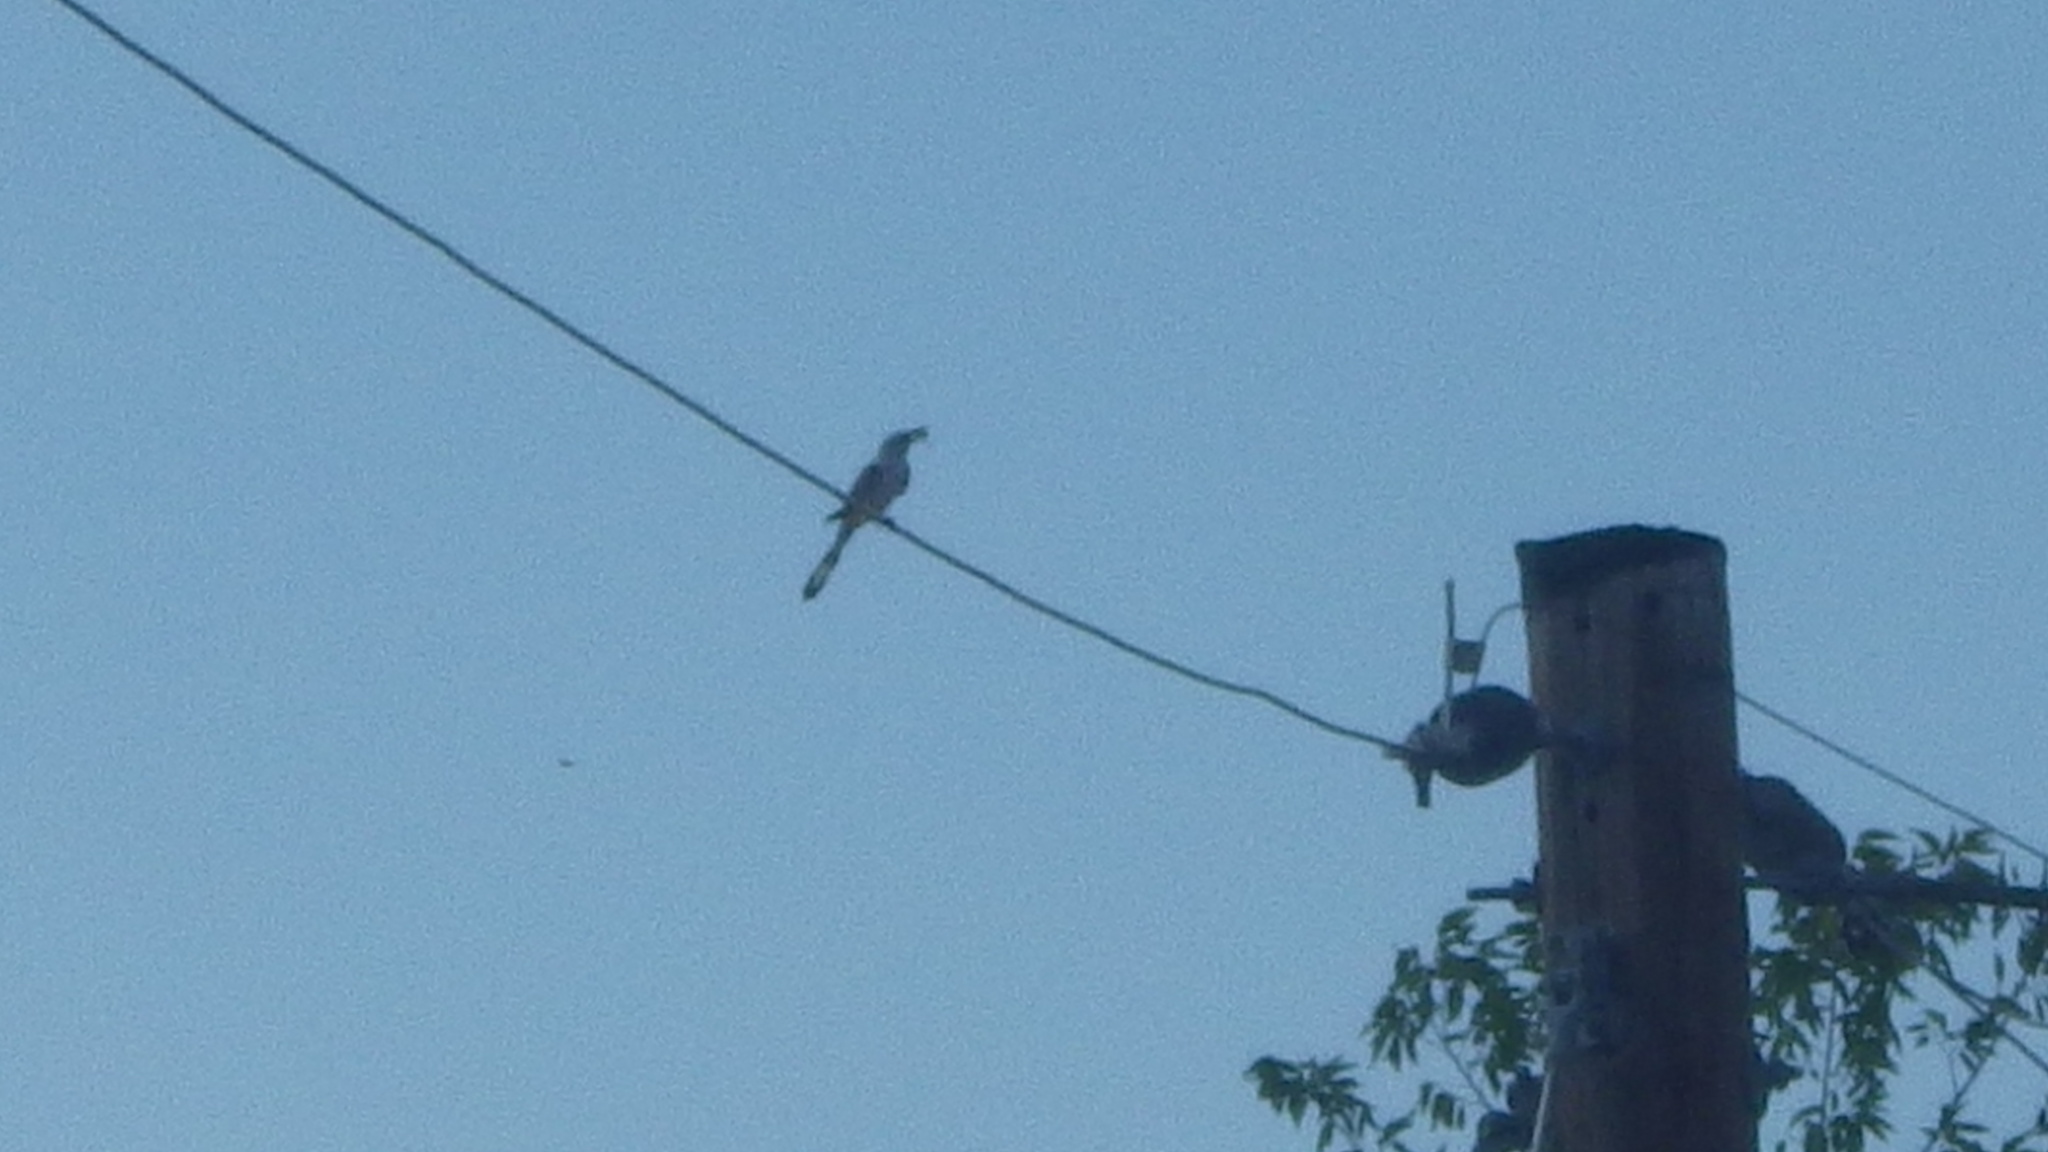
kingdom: Animalia
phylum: Chordata
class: Aves
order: Passeriformes
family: Tyrannidae
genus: Tyrannus
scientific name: Tyrannus forficatus
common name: Scissor-tailed flycatcher
